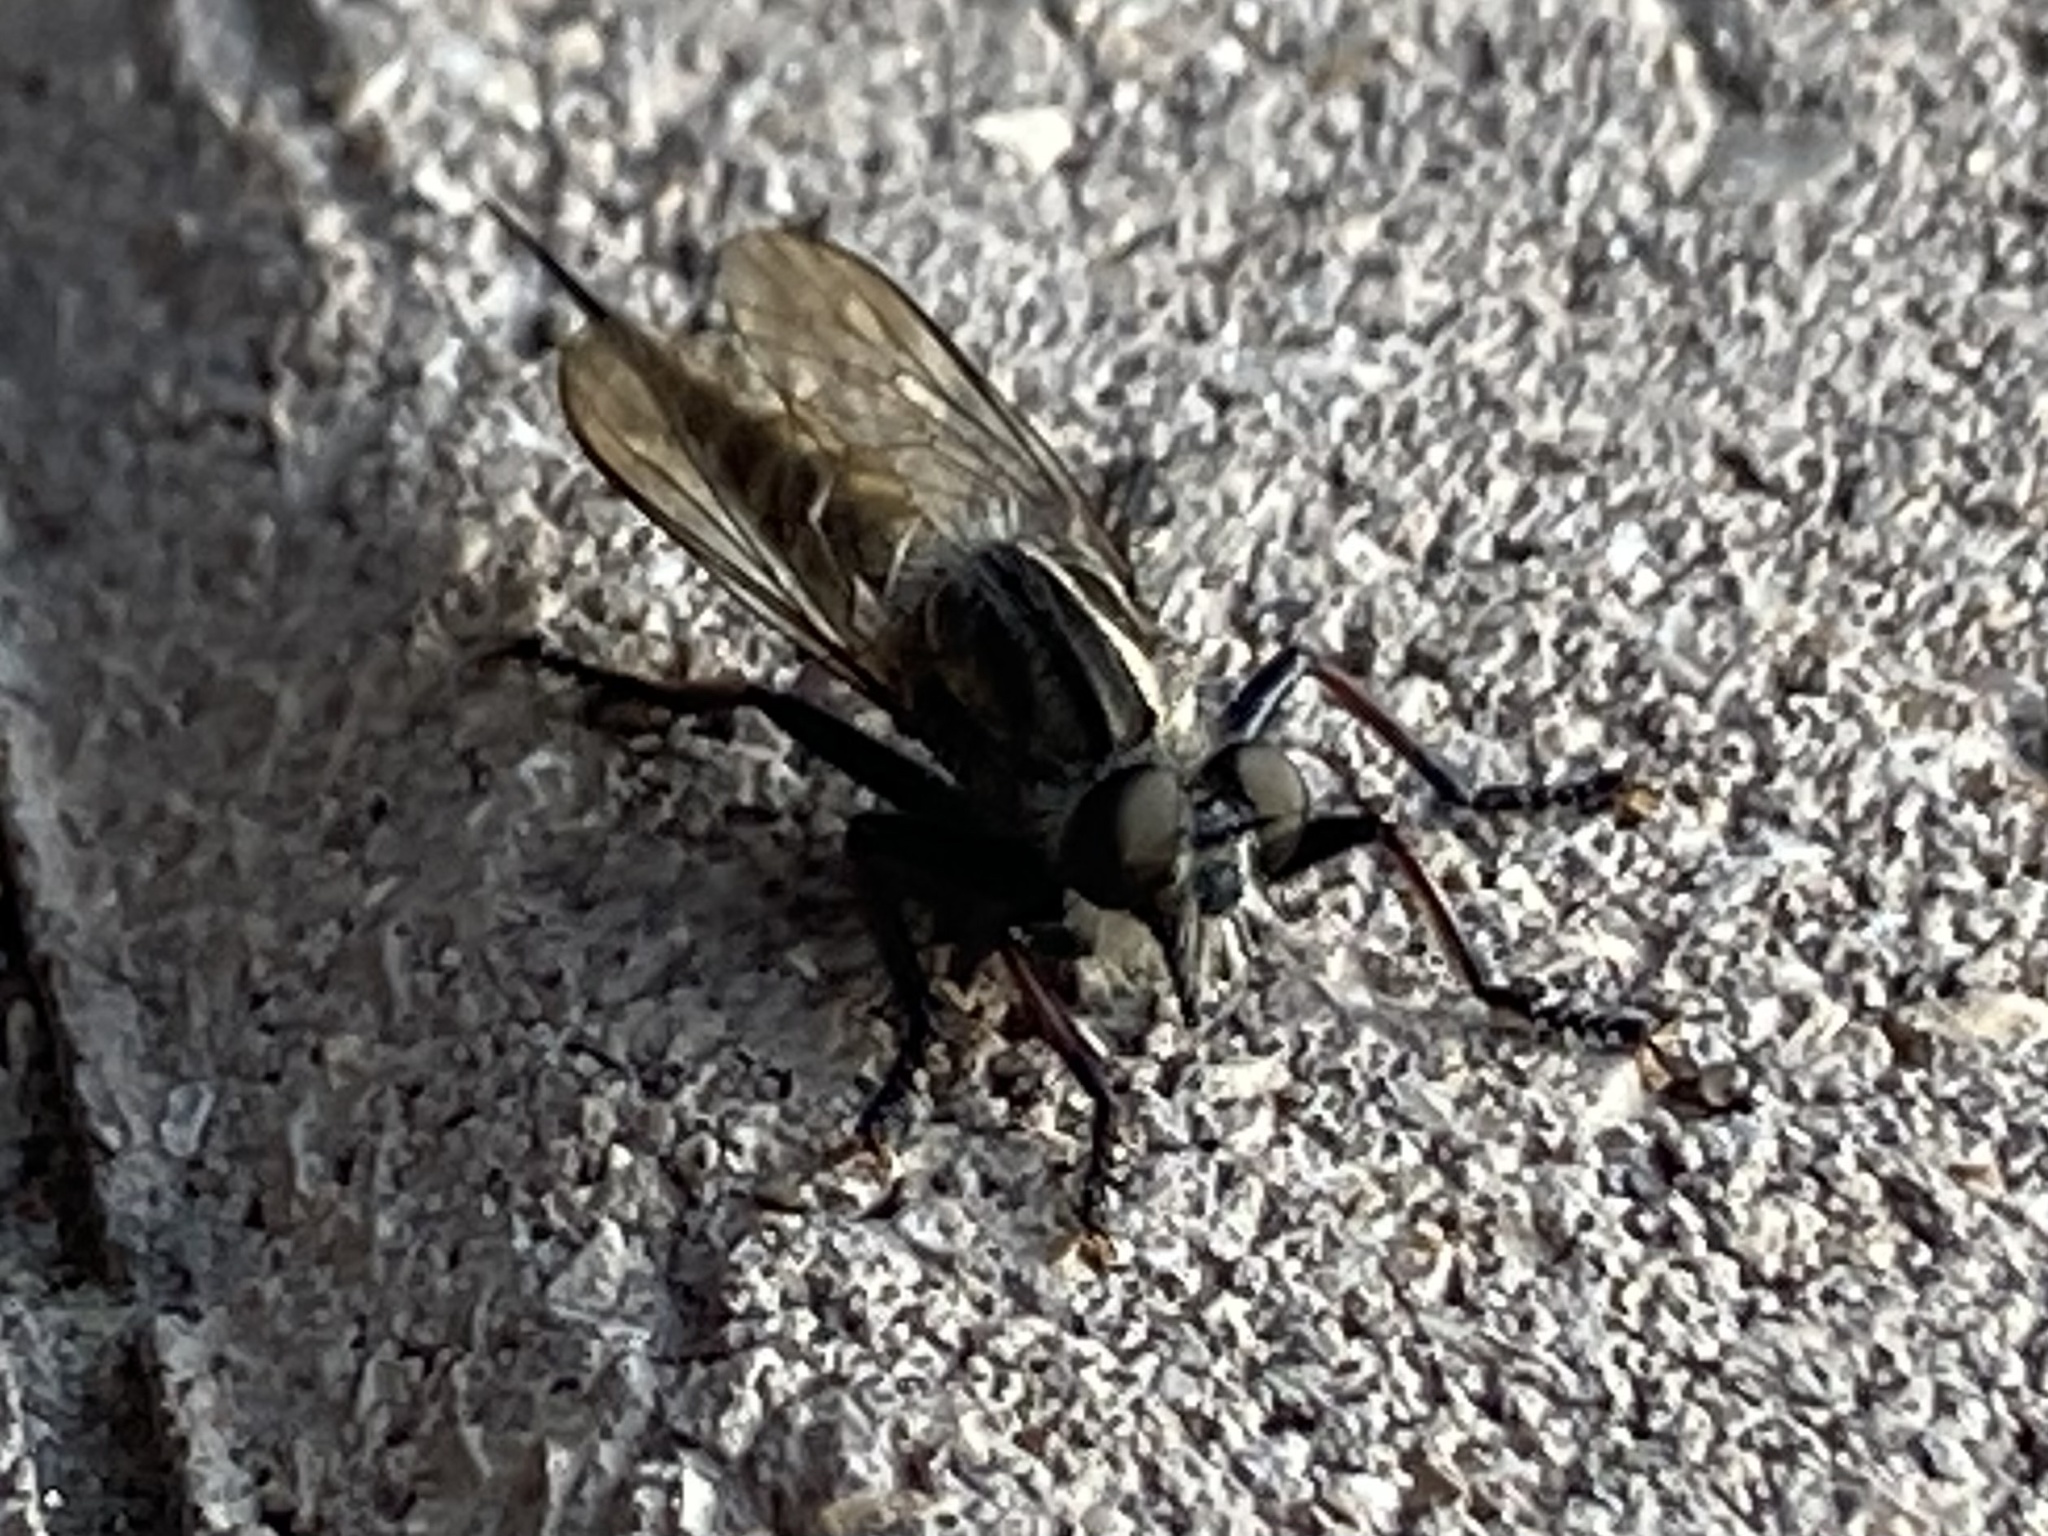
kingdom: Animalia
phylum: Arthropoda
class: Insecta
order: Diptera
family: Asilidae
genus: Efferia
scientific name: Efferia
